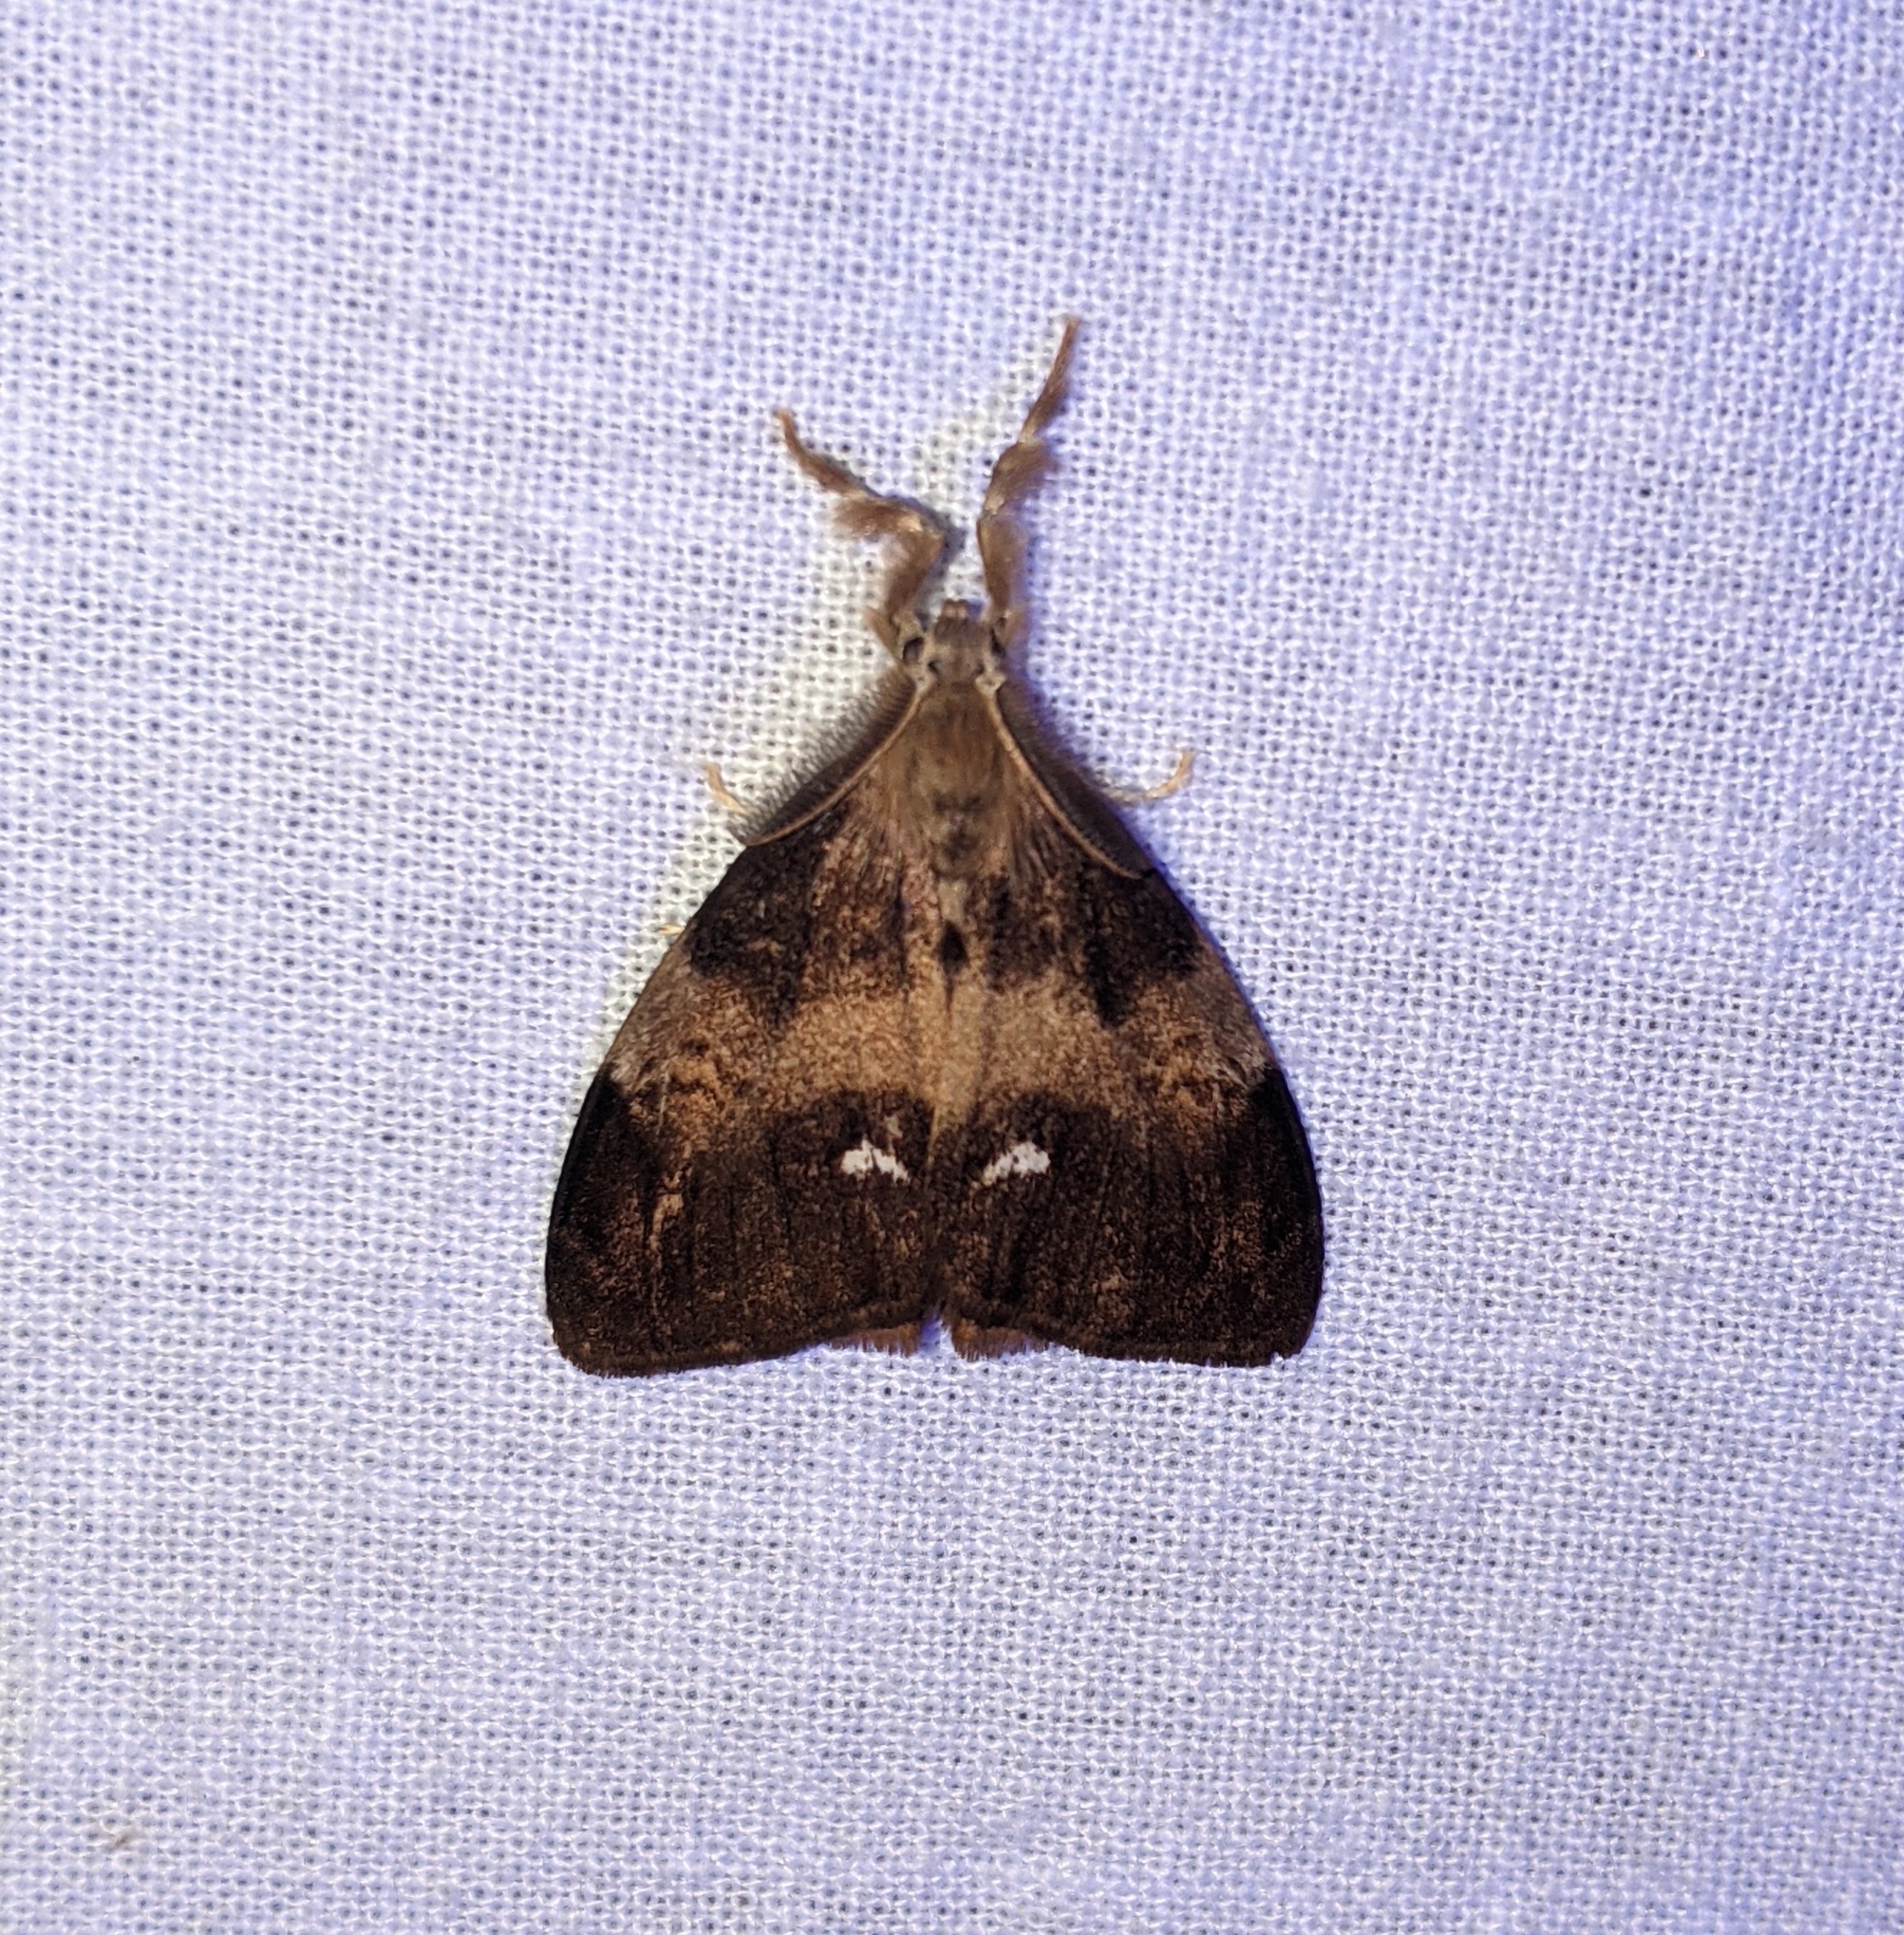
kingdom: Animalia
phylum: Arthropoda
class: Insecta
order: Lepidoptera
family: Erebidae
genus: Orgyia
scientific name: Orgyia antiqua
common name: Vapourer
